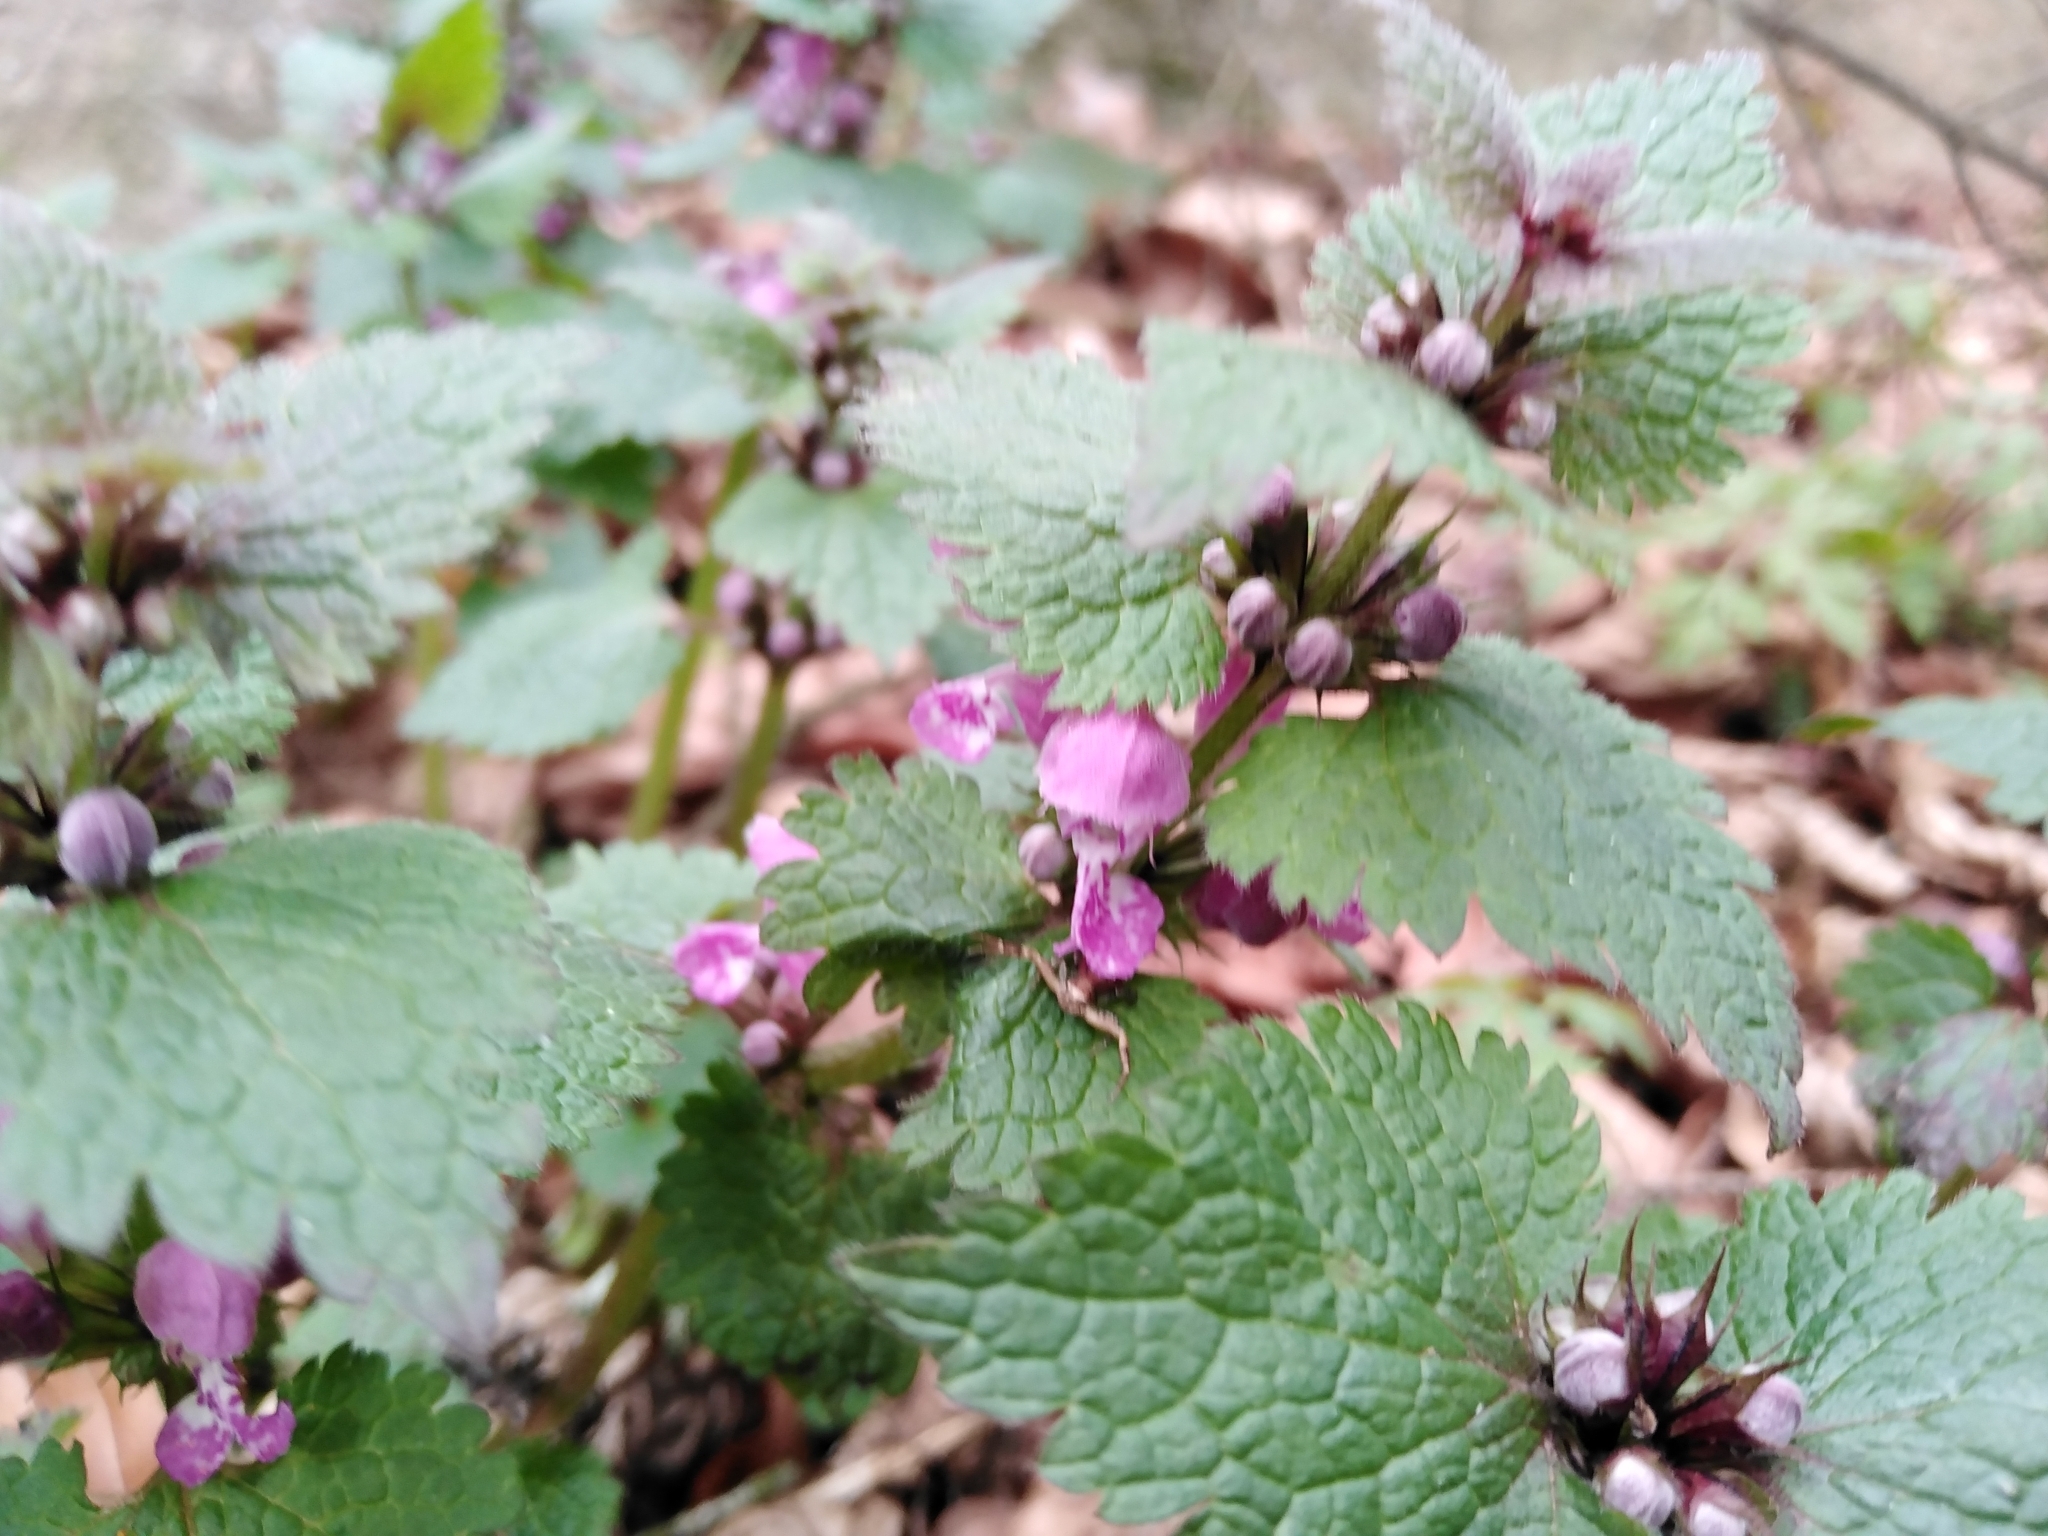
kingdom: Plantae
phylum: Tracheophyta
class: Magnoliopsida
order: Lamiales
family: Lamiaceae
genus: Lamium
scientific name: Lamium maculatum
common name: Spotted dead-nettle
